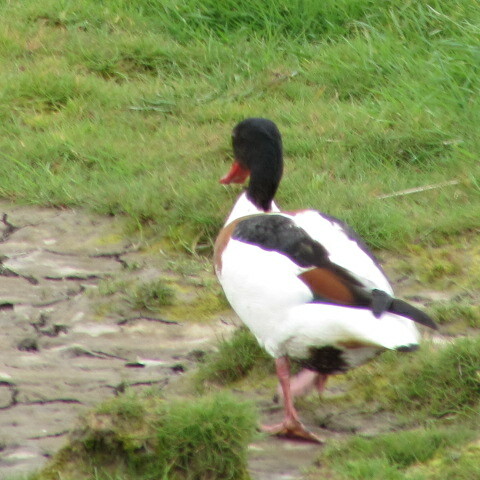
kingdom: Animalia
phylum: Chordata
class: Aves
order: Anseriformes
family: Anatidae
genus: Tadorna
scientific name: Tadorna tadorna
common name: Common shelduck
